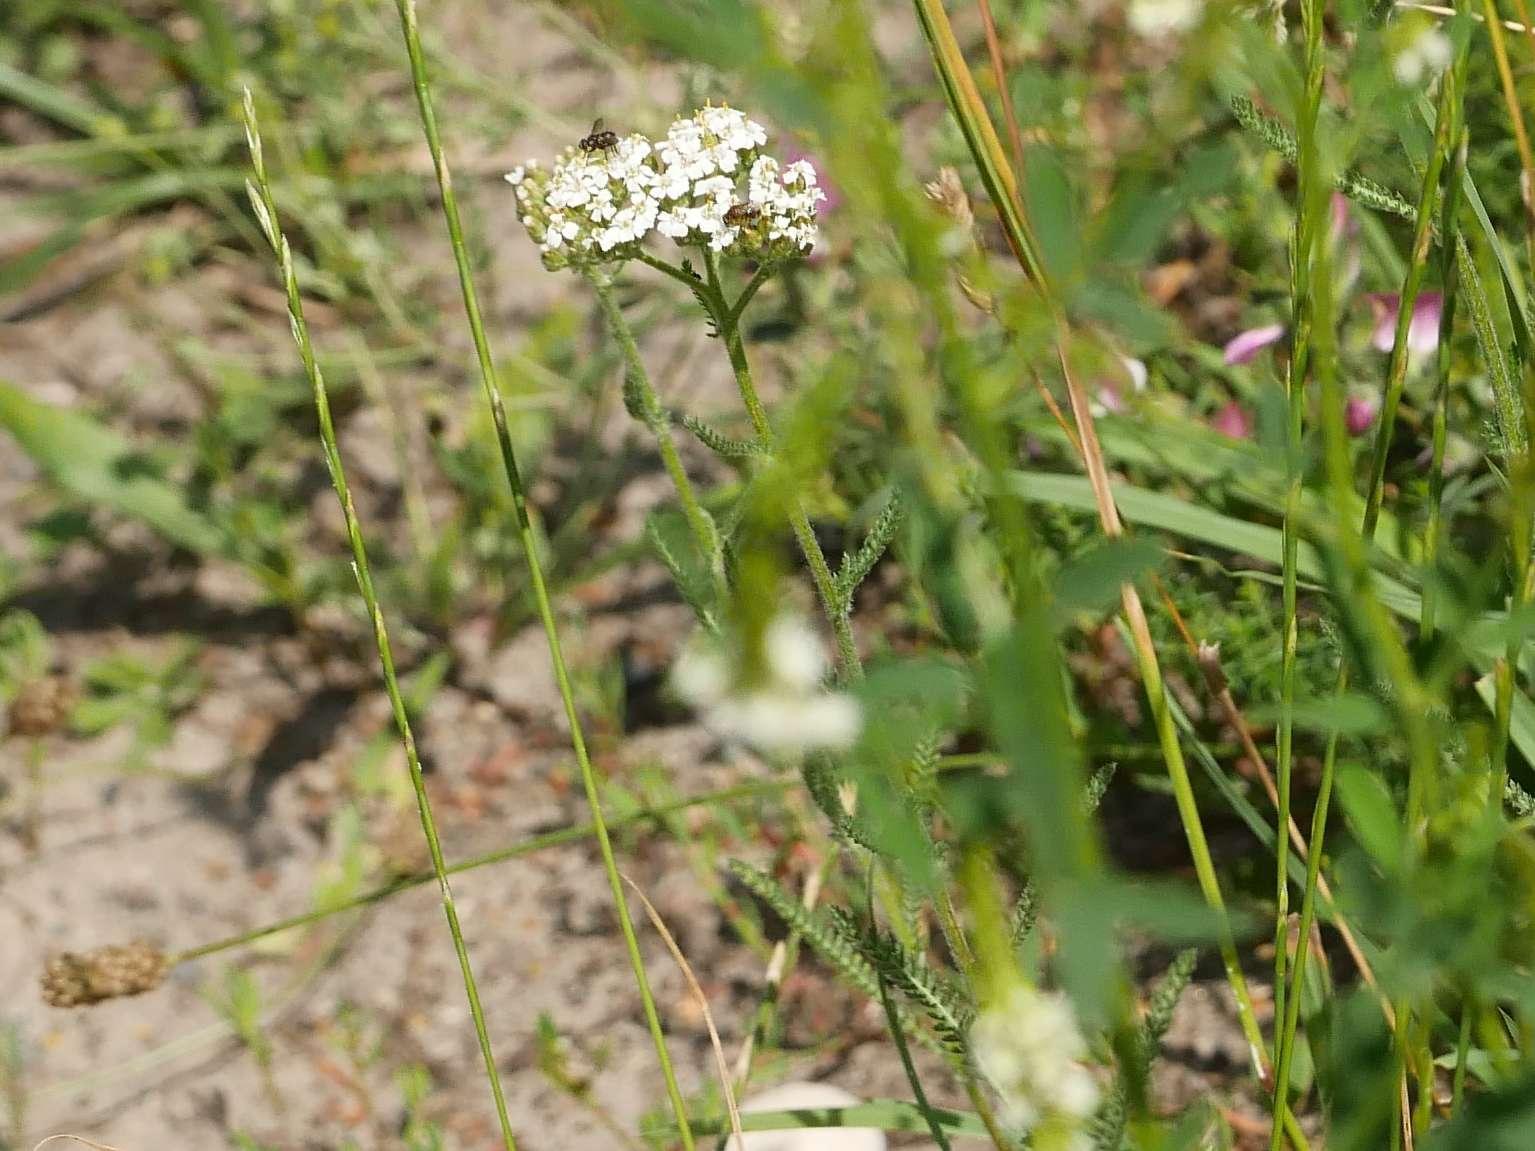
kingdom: Plantae
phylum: Tracheophyta
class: Magnoliopsida
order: Asterales
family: Asteraceae
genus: Achillea
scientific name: Achillea millefolium
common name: Yarrow
